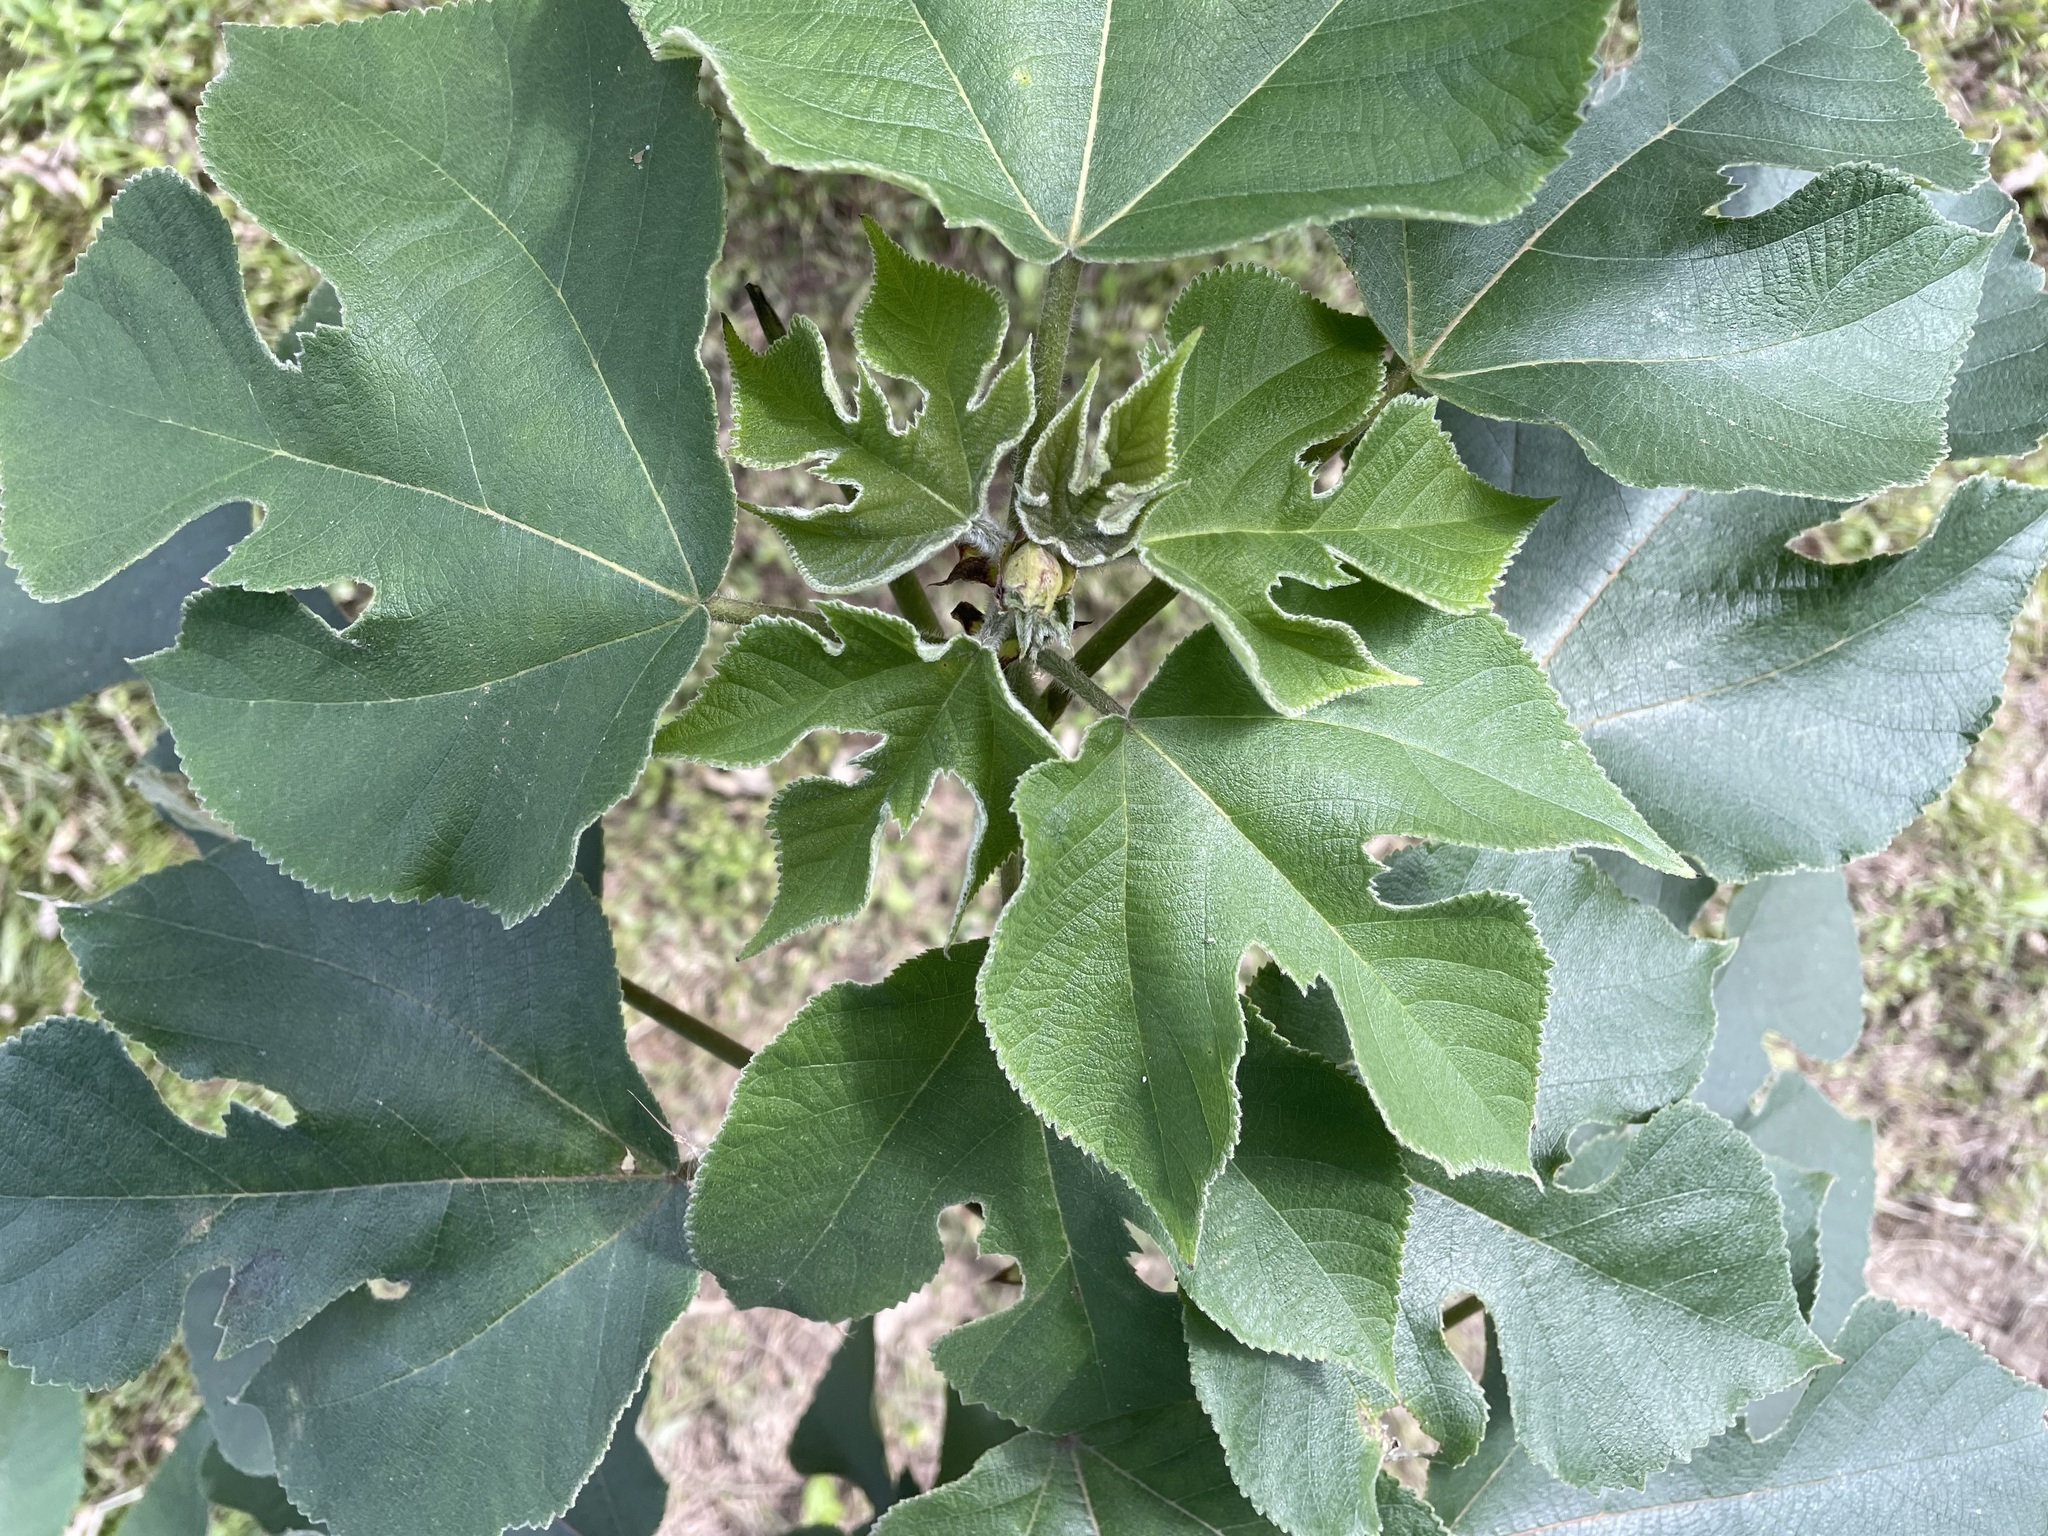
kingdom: Plantae
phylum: Tracheophyta
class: Magnoliopsida
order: Rosales
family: Moraceae
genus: Broussonetia
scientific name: Broussonetia papyrifera
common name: Paper mulberry
